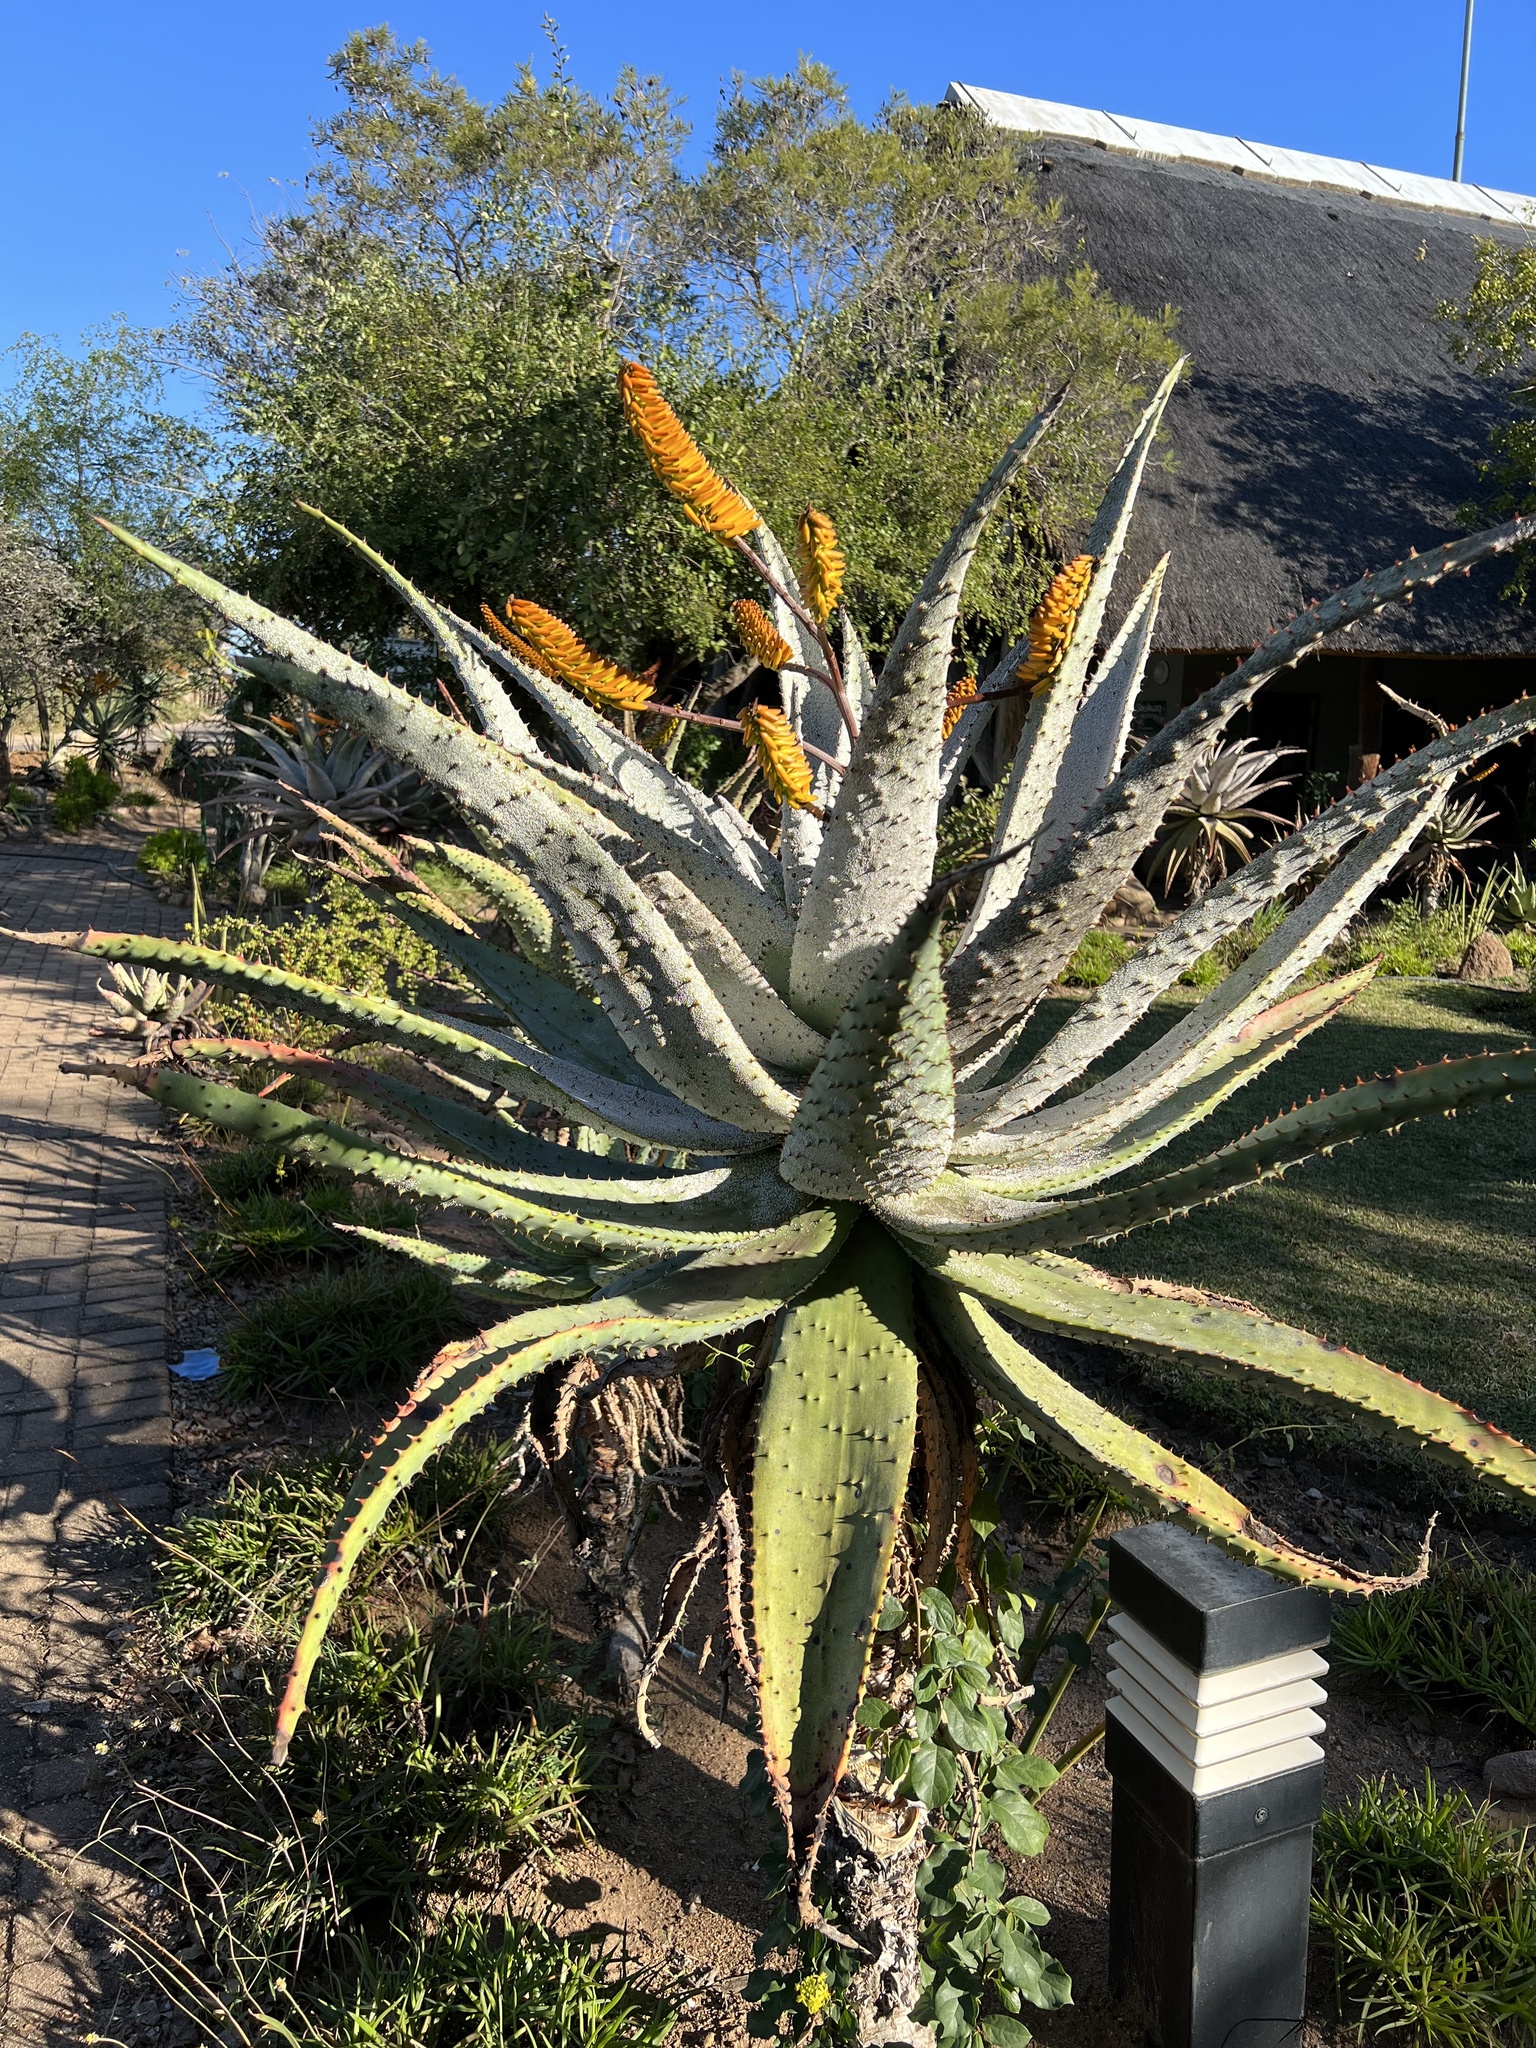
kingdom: Plantae
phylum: Tracheophyta
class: Liliopsida
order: Asparagales
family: Asphodelaceae
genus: Aloe
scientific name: Aloe marlothii
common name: Flat-flowered aloe
